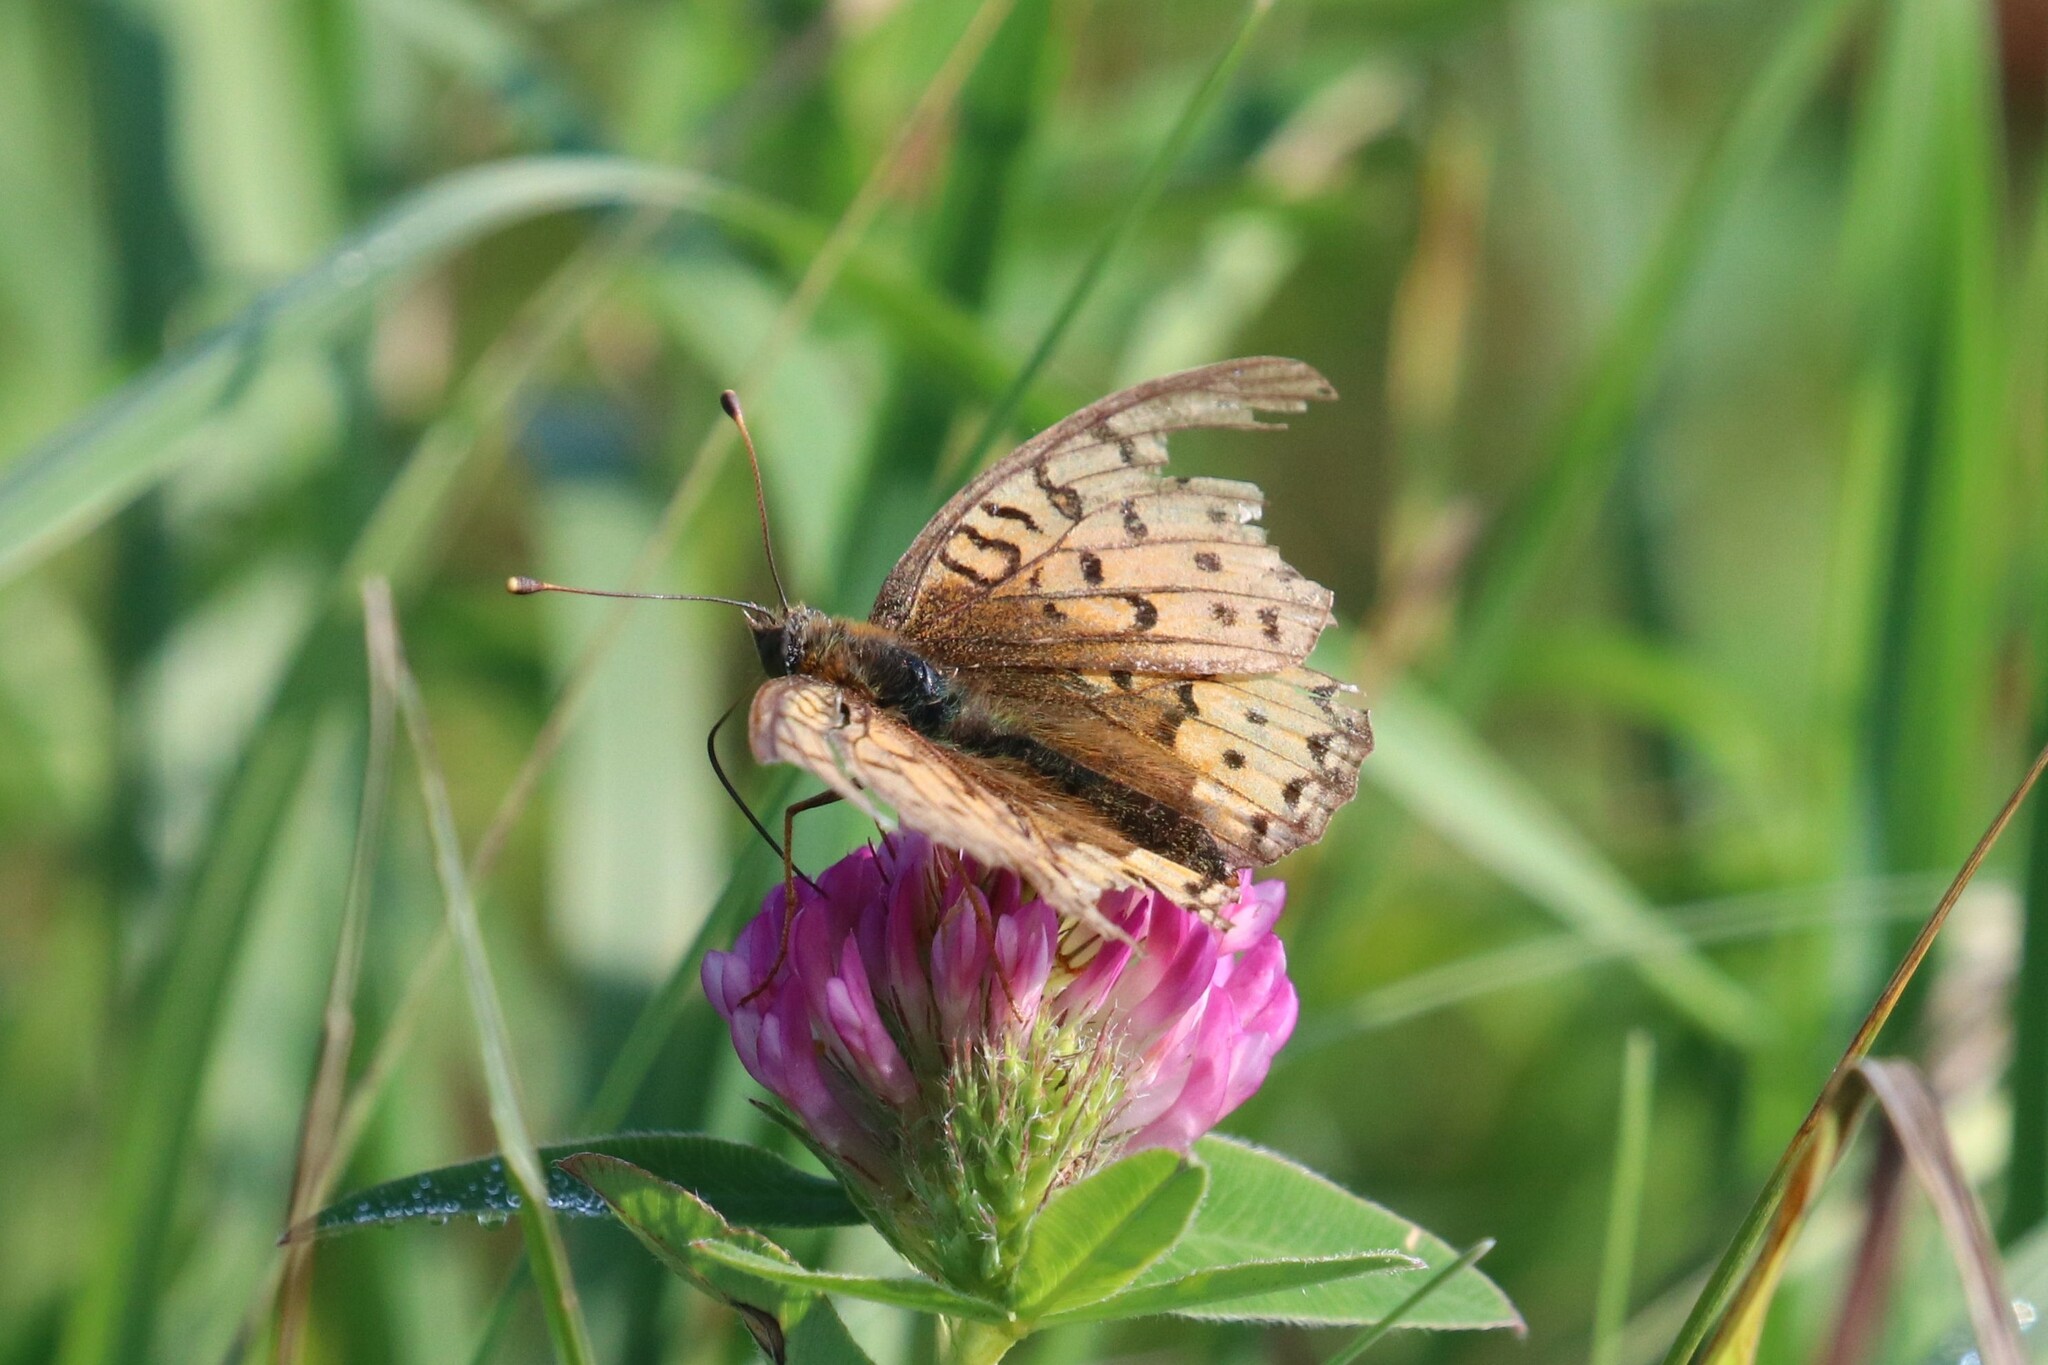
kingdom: Animalia
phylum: Arthropoda
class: Insecta
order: Lepidoptera
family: Nymphalidae
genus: Speyeria
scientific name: Speyeria aglaja
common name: Dark green fritillary
